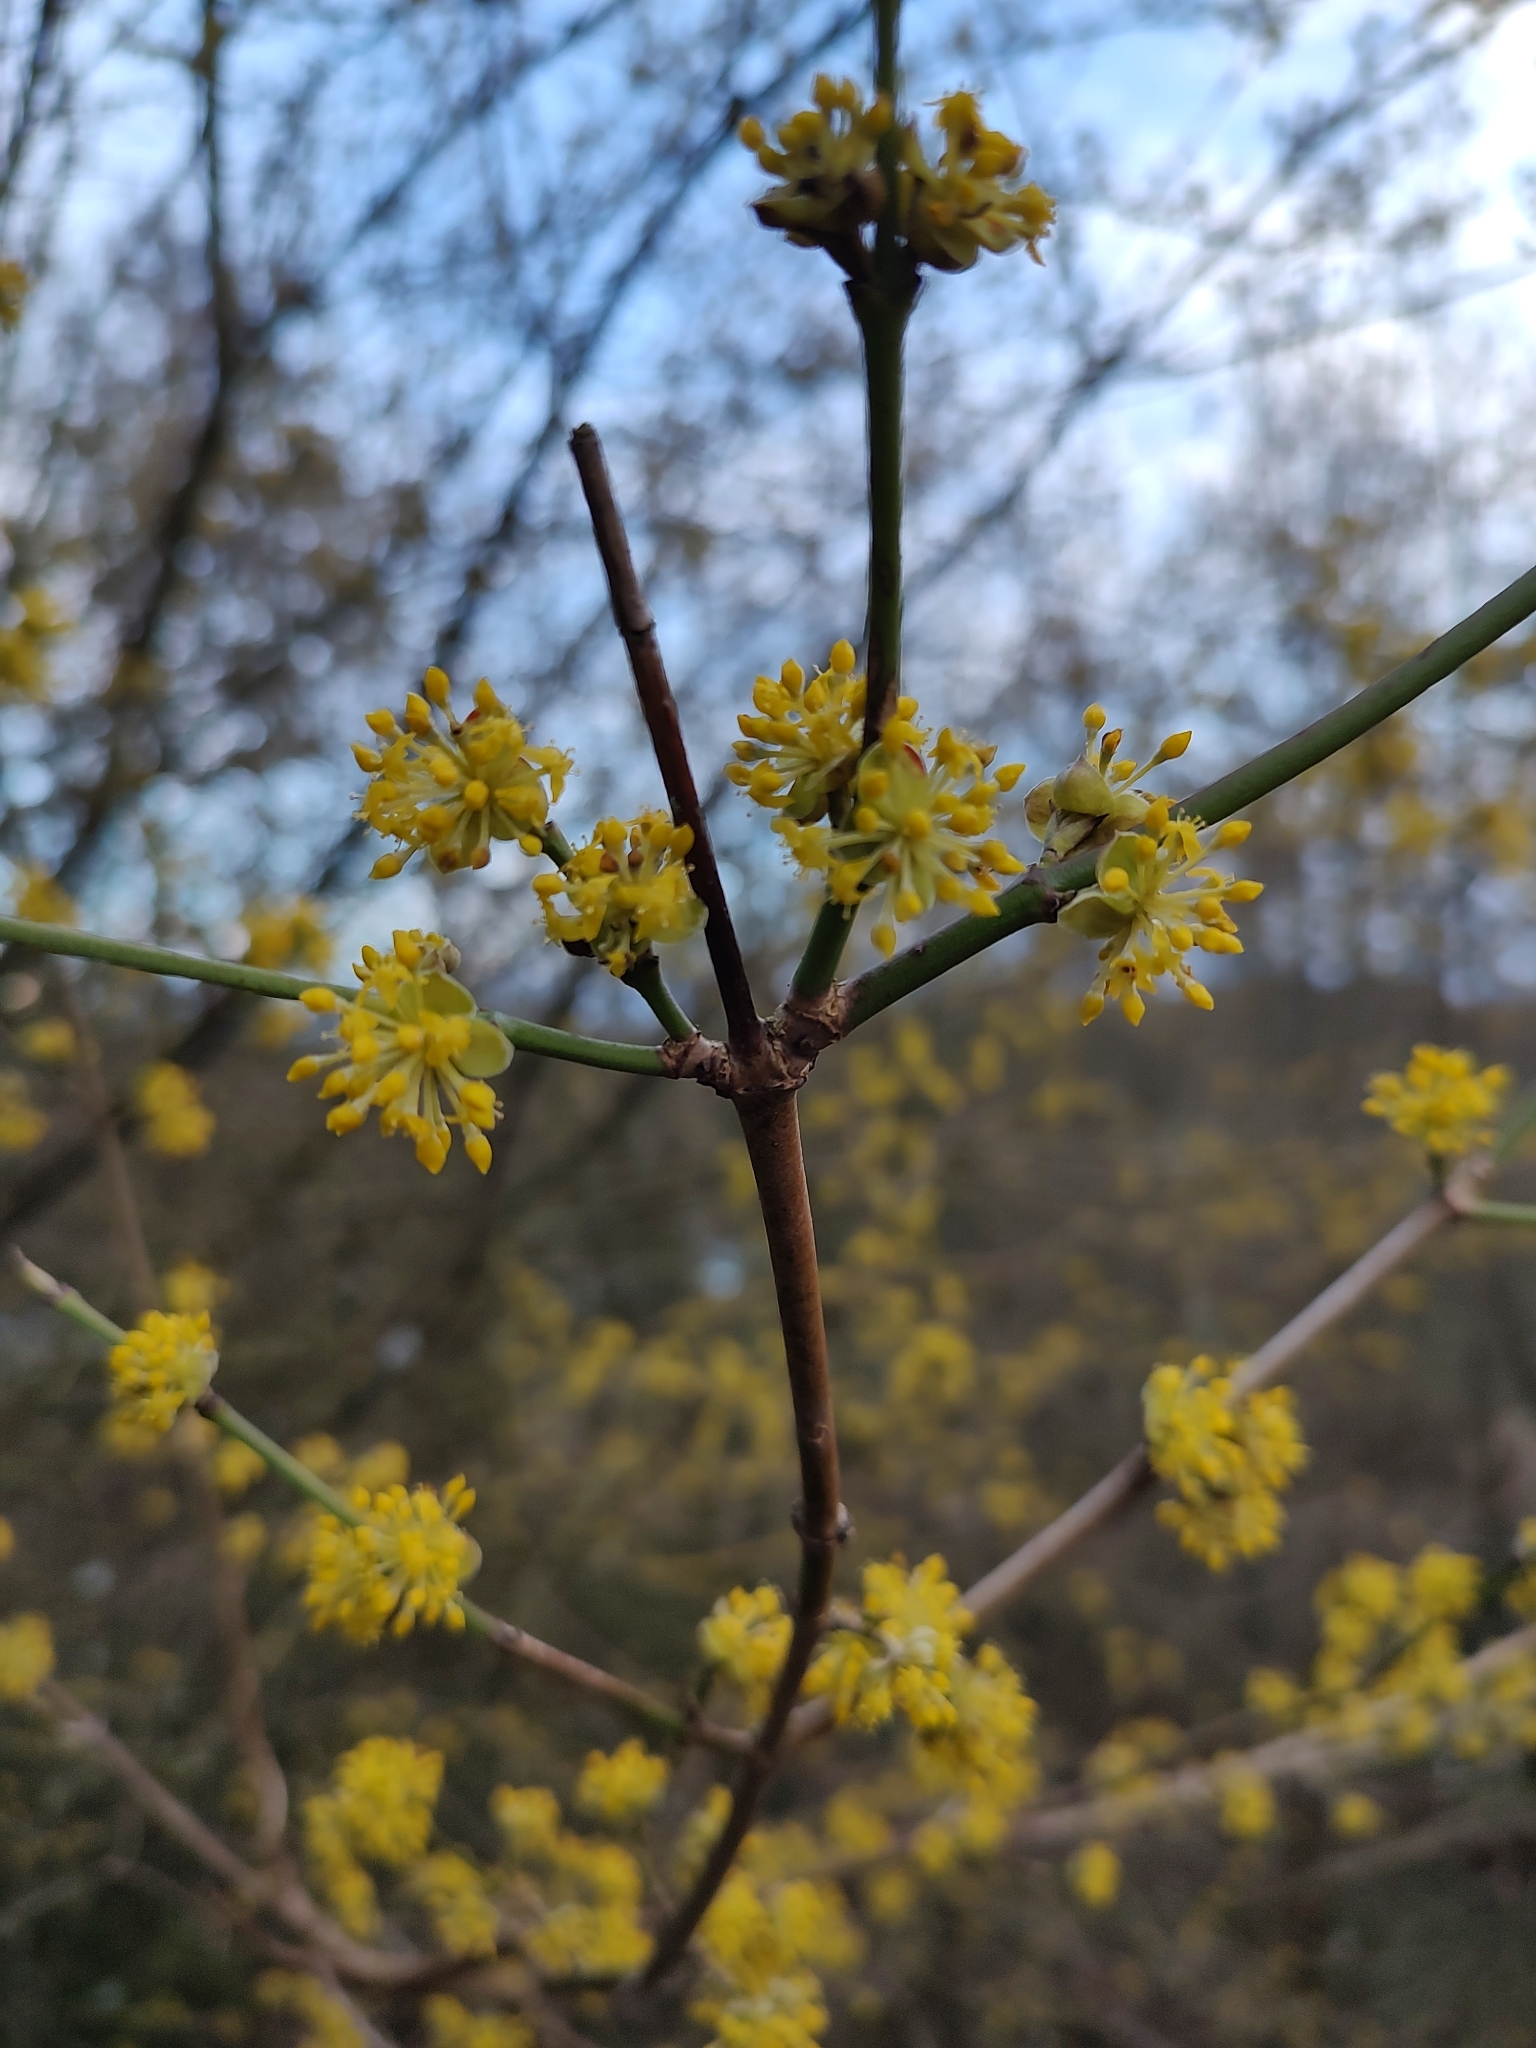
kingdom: Plantae
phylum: Tracheophyta
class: Magnoliopsida
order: Cornales
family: Cornaceae
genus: Cornus
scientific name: Cornus mas
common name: Cornelian-cherry
